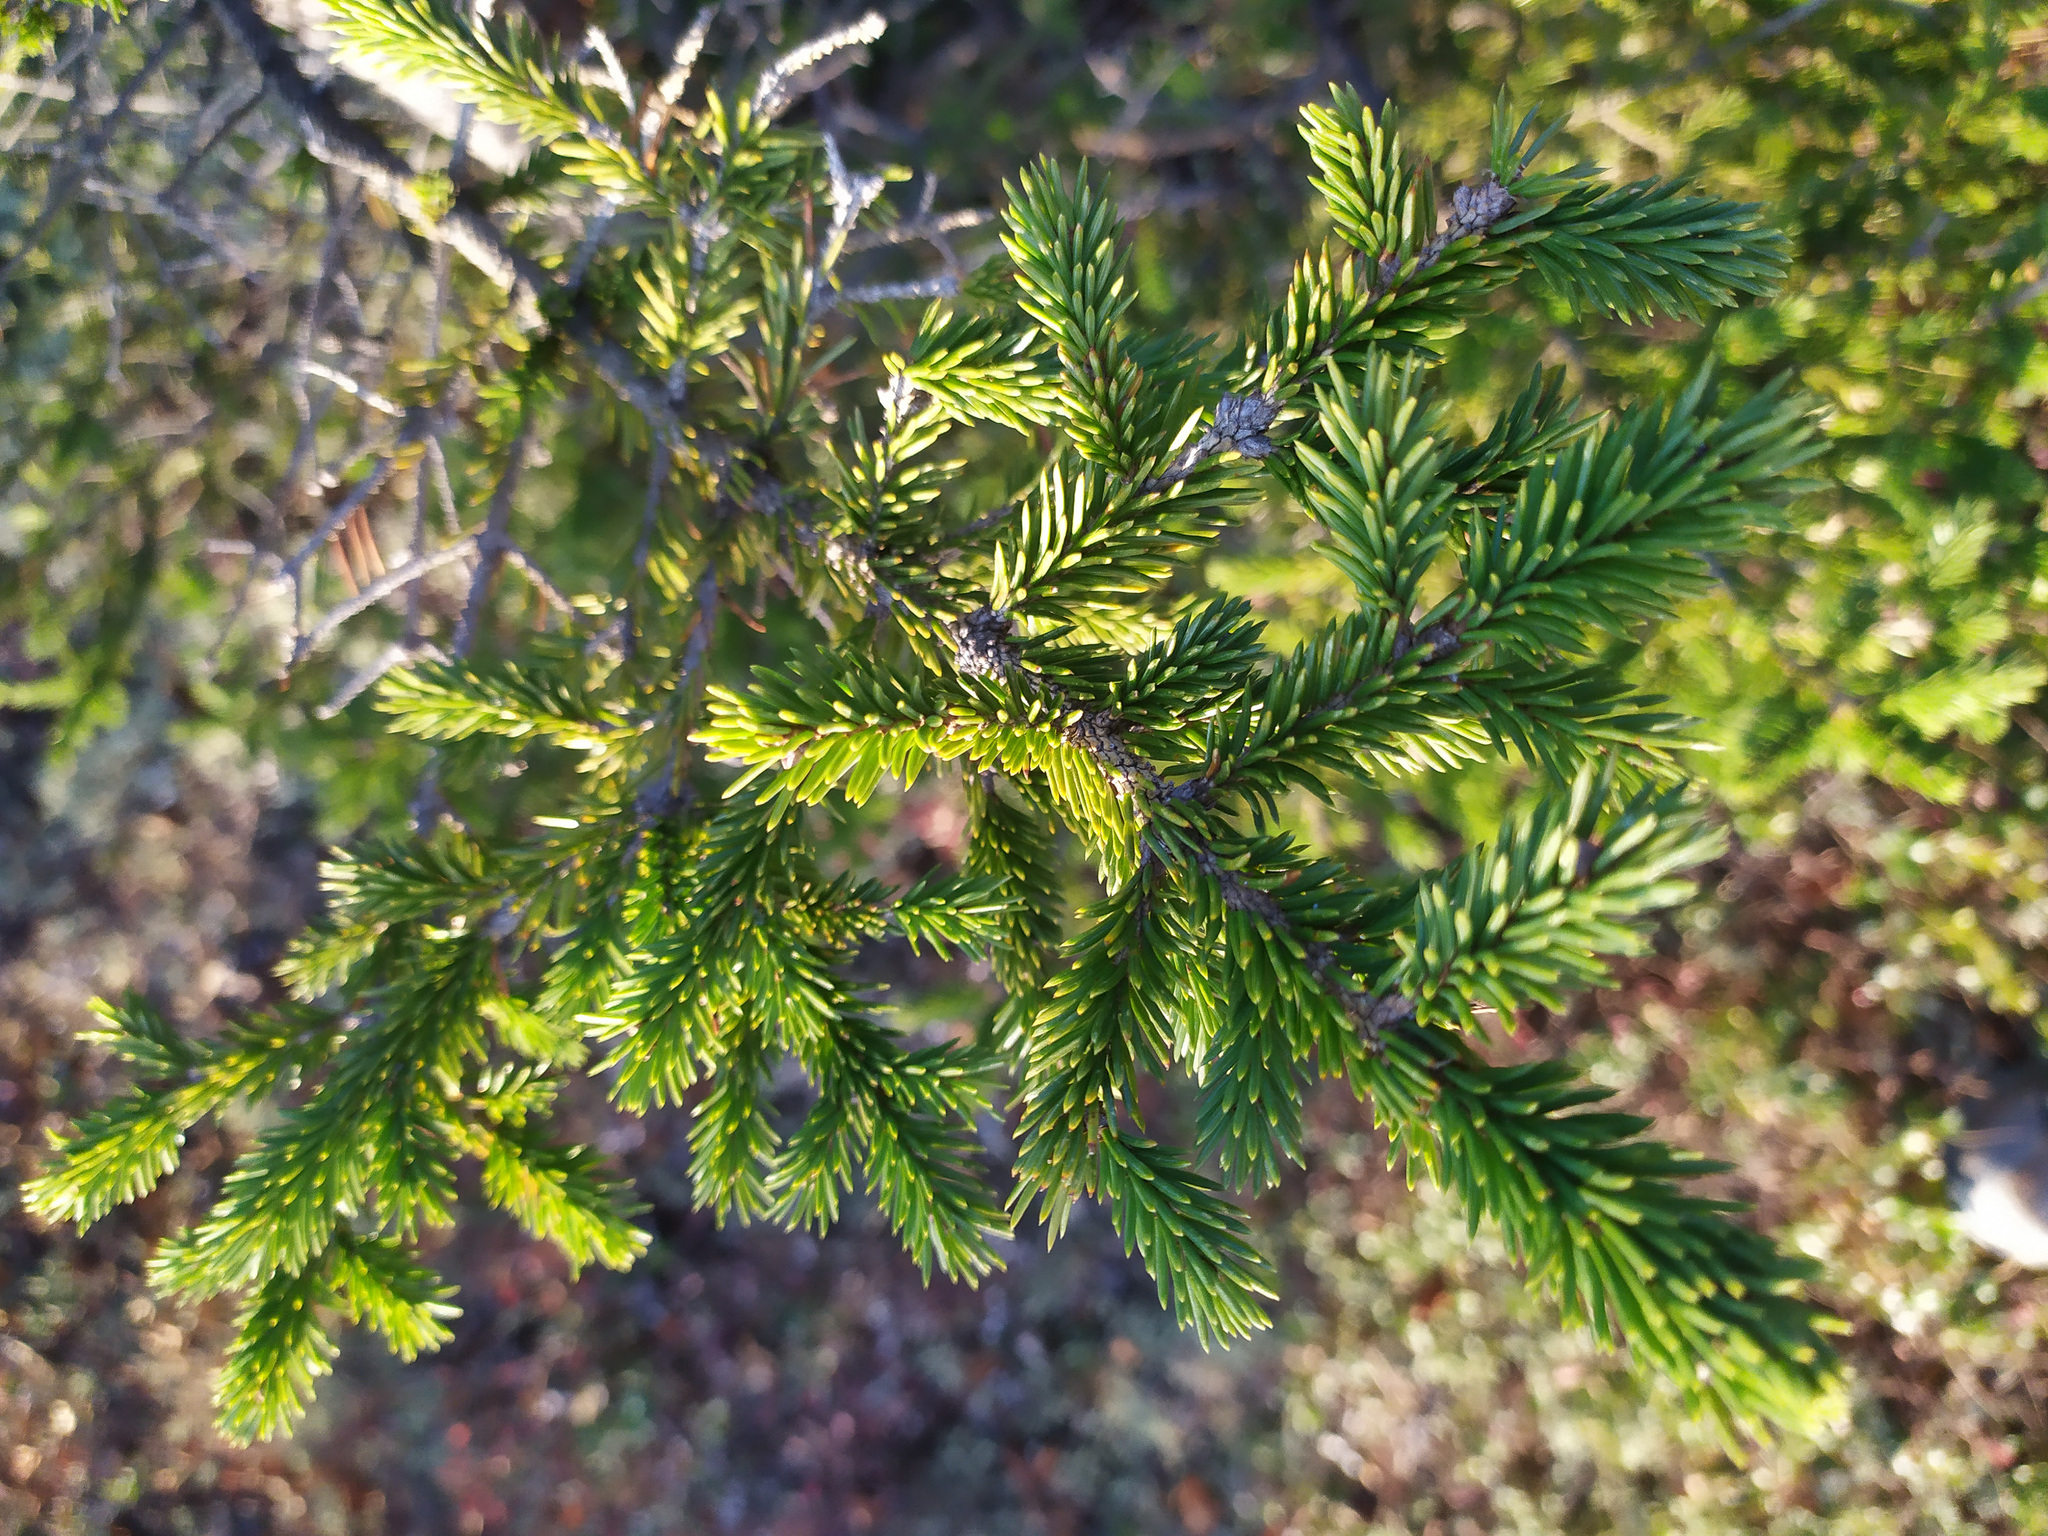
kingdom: Plantae
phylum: Tracheophyta
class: Pinopsida
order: Pinales
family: Pinaceae
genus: Picea
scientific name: Picea
